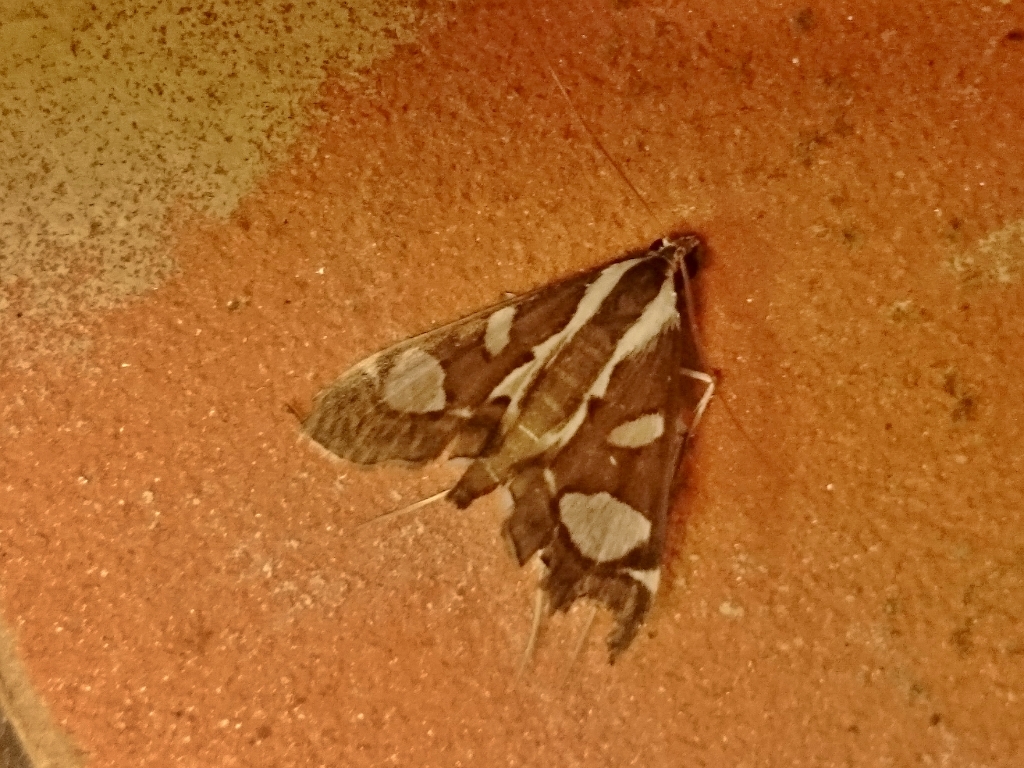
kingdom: Animalia
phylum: Arthropoda
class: Insecta
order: Lepidoptera
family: Crambidae
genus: Glyphodes
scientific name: Glyphodes bicolor
